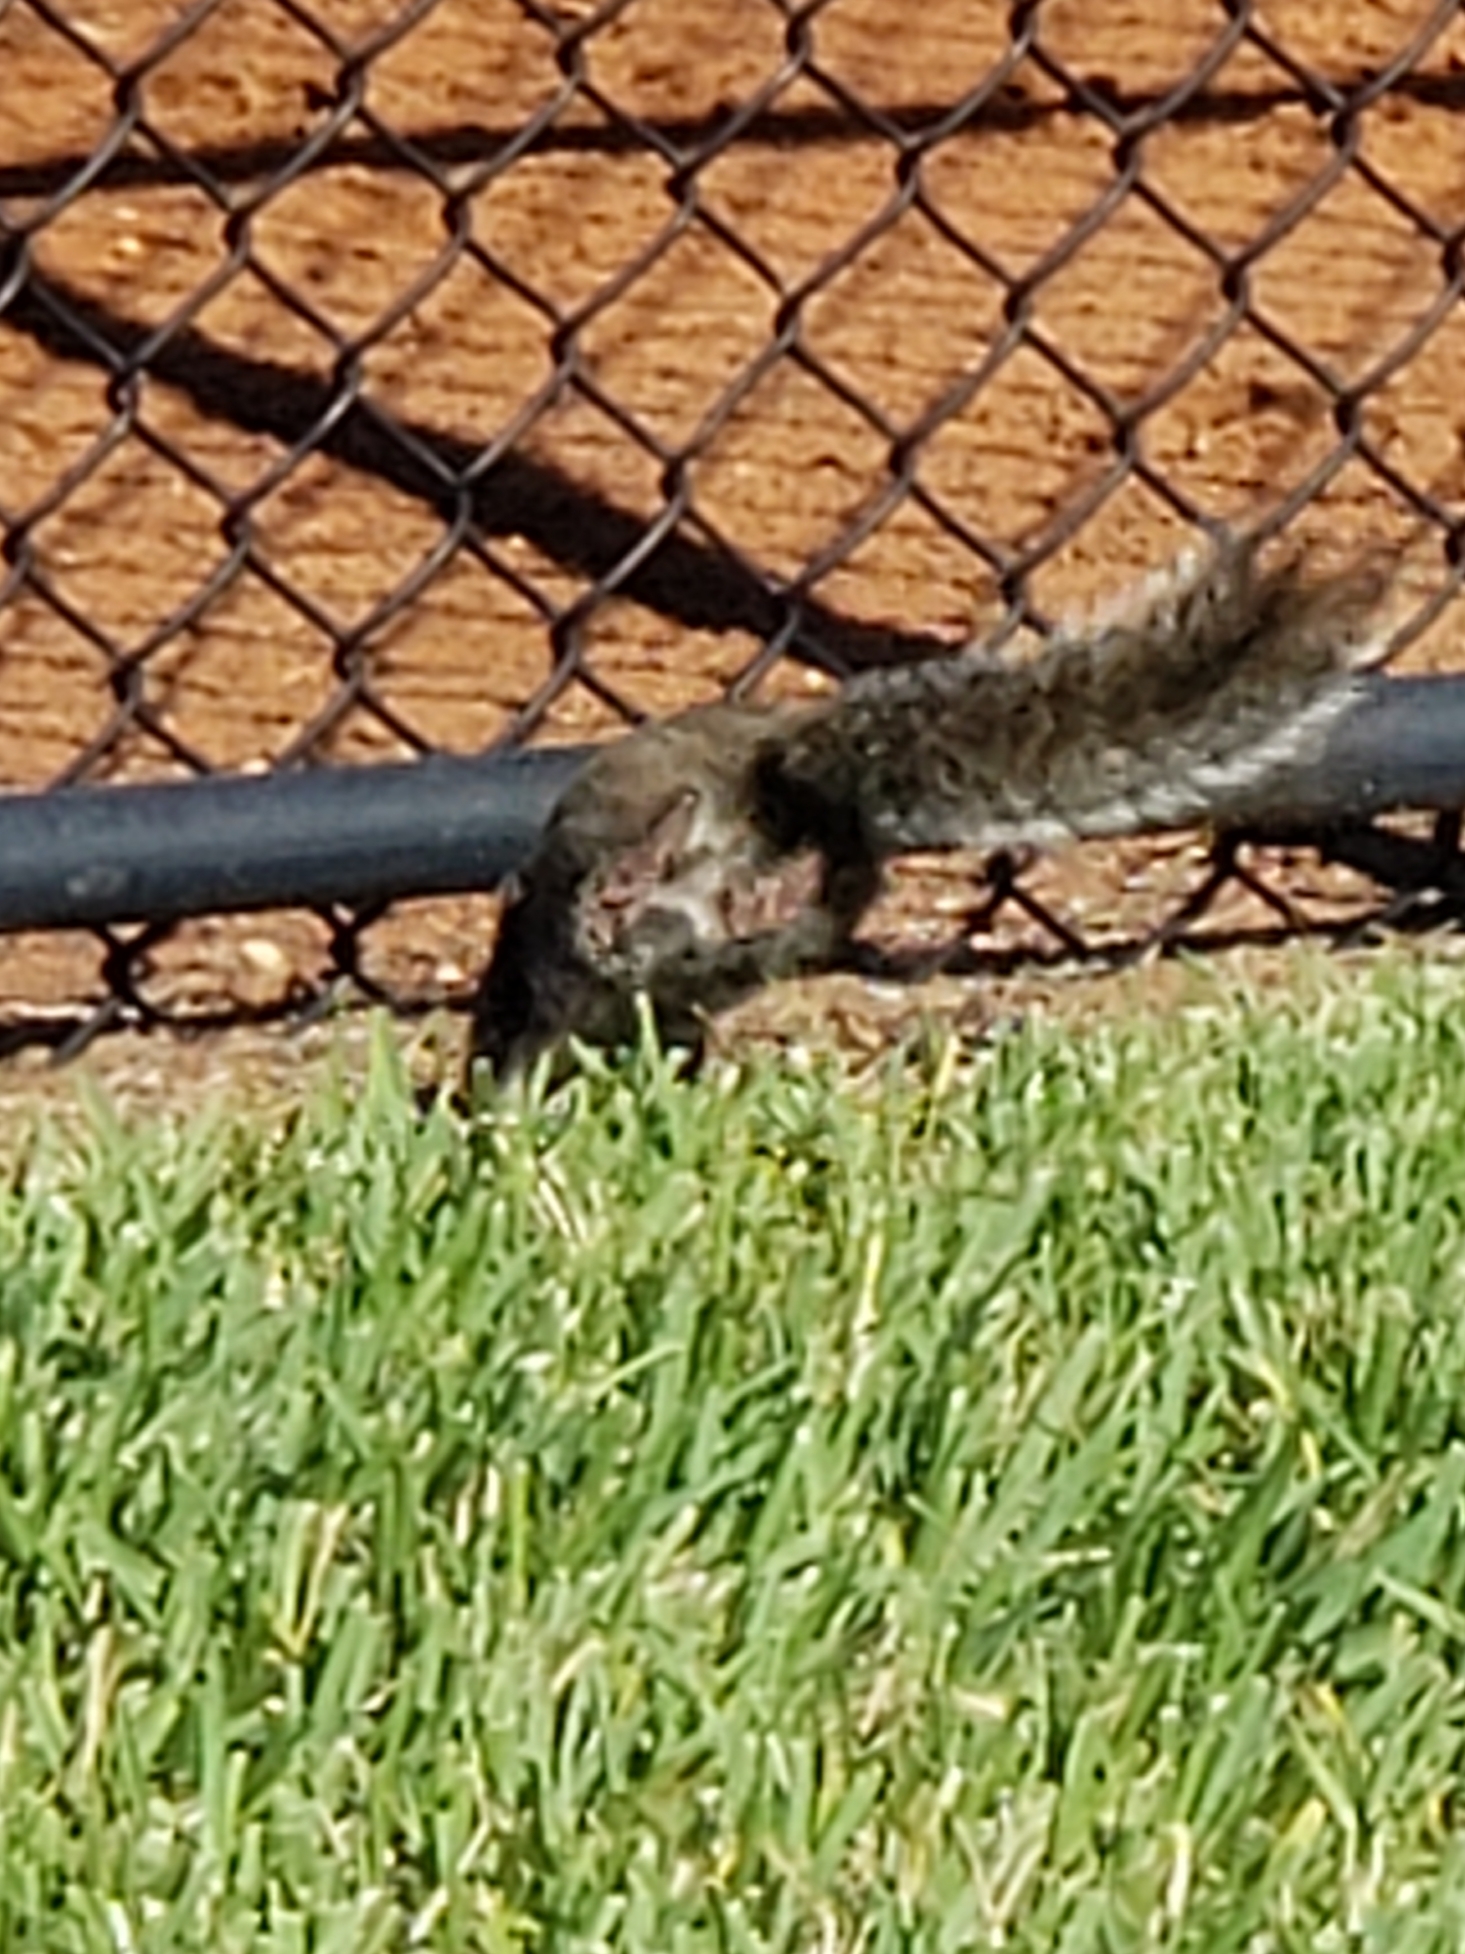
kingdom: Animalia
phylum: Chordata
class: Mammalia
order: Rodentia
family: Sciuridae
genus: Sciurus
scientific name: Sciurus carolinensis
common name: Eastern gray squirrel
